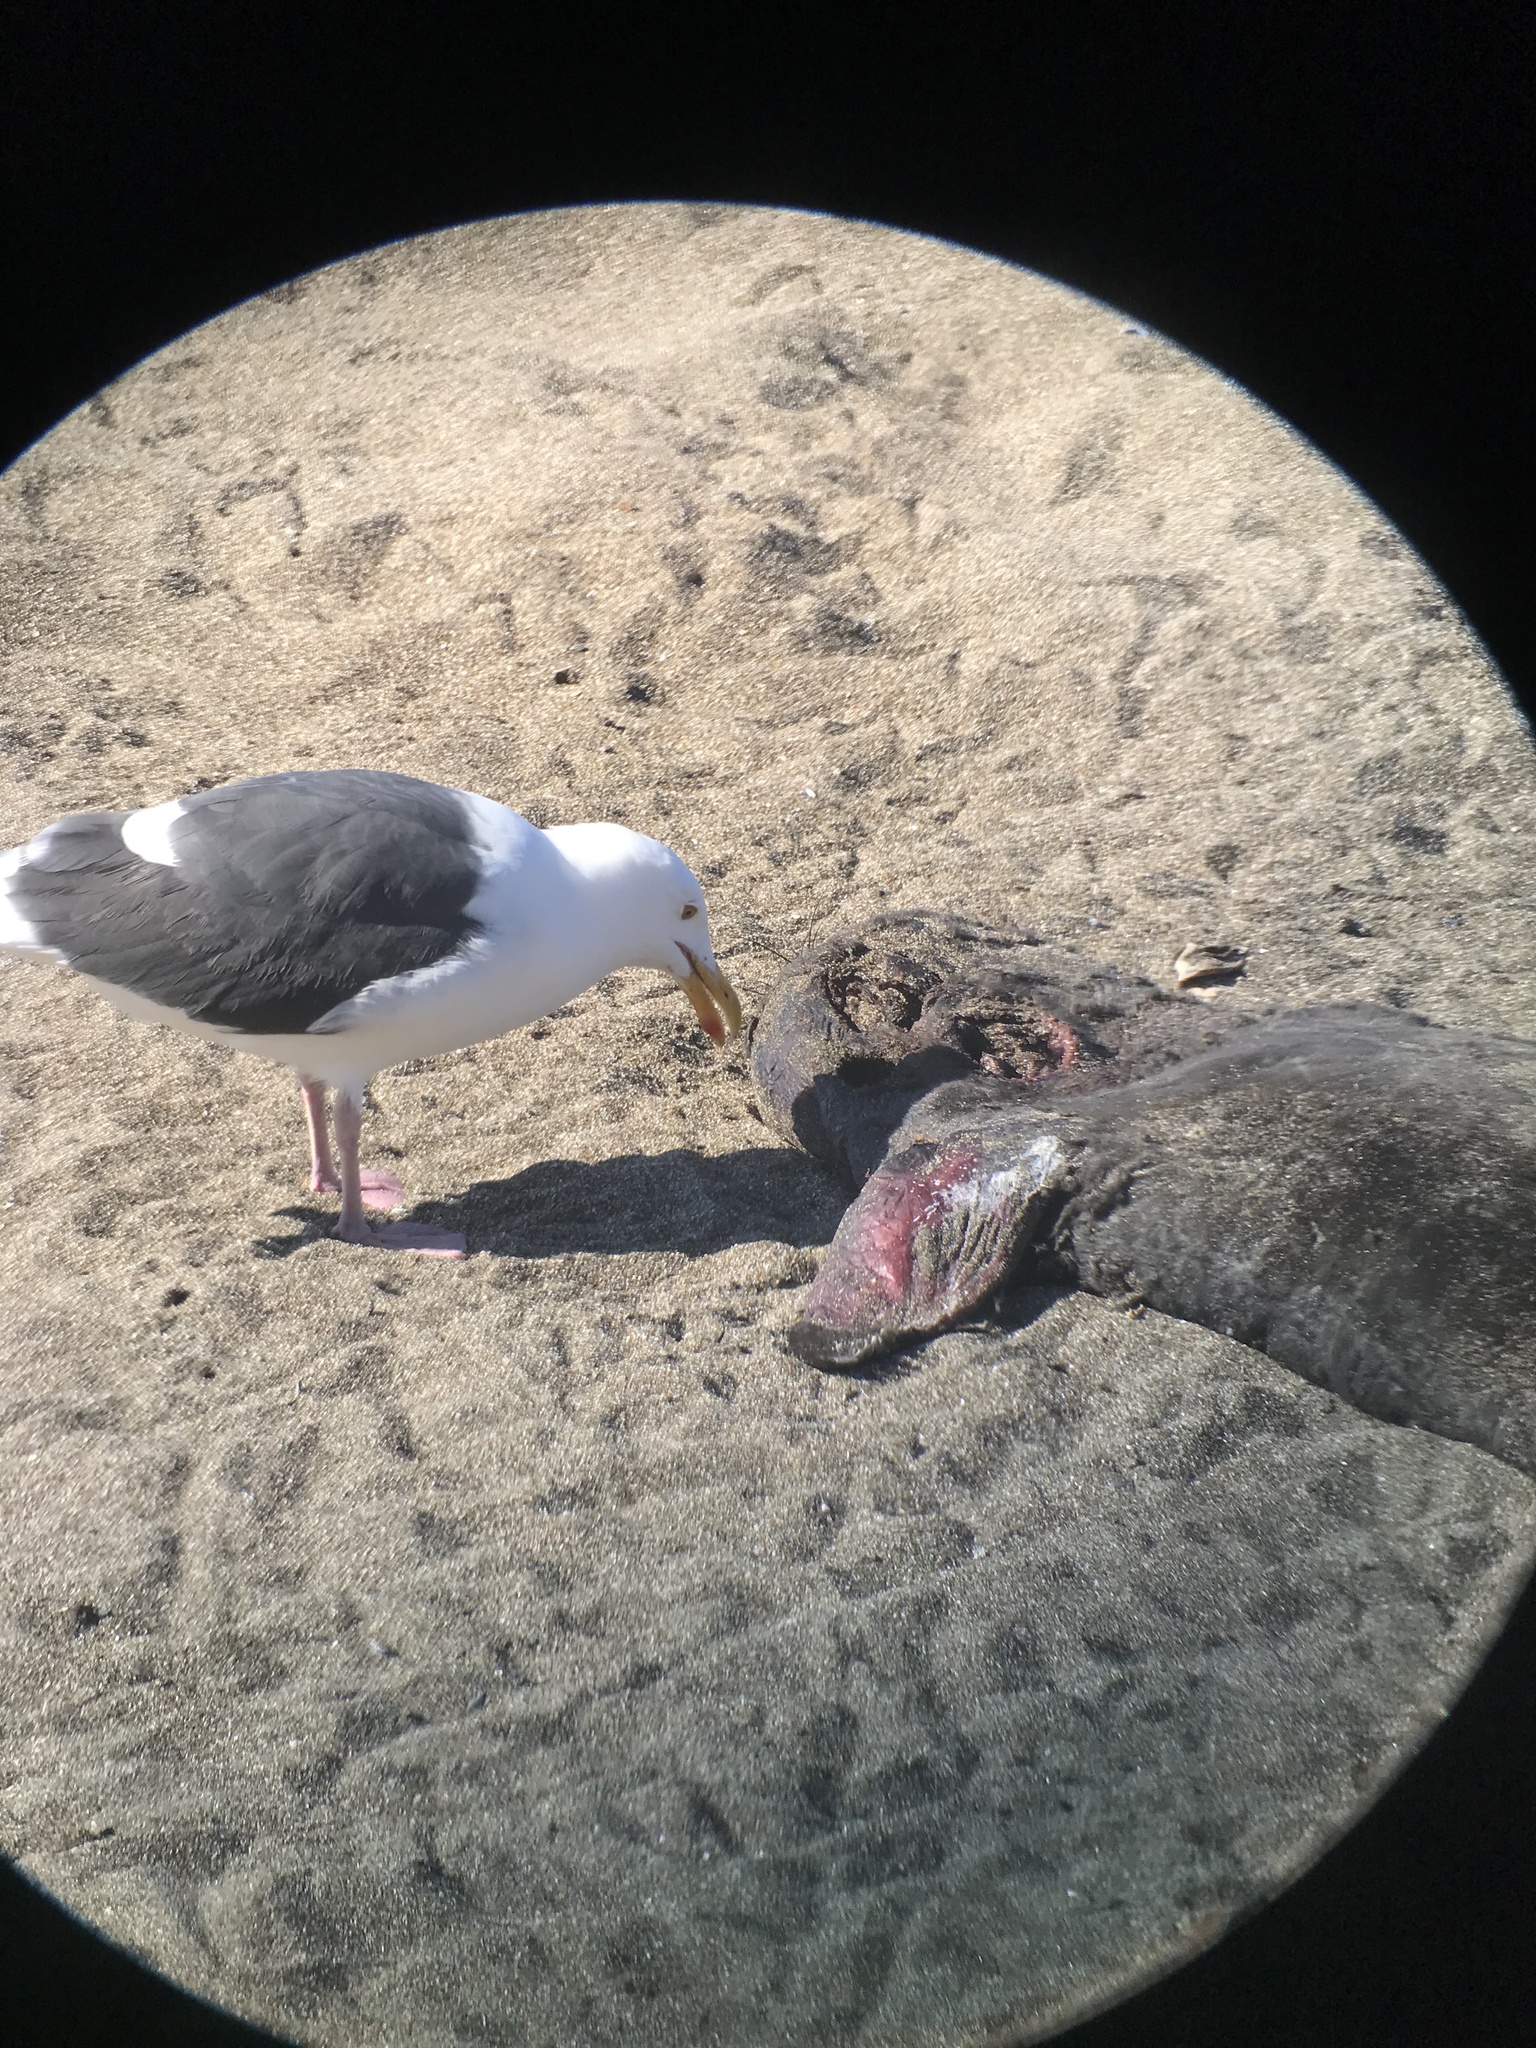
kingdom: Animalia
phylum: Chordata
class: Aves
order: Charadriiformes
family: Laridae
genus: Larus
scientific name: Larus occidentalis
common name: Western gull
